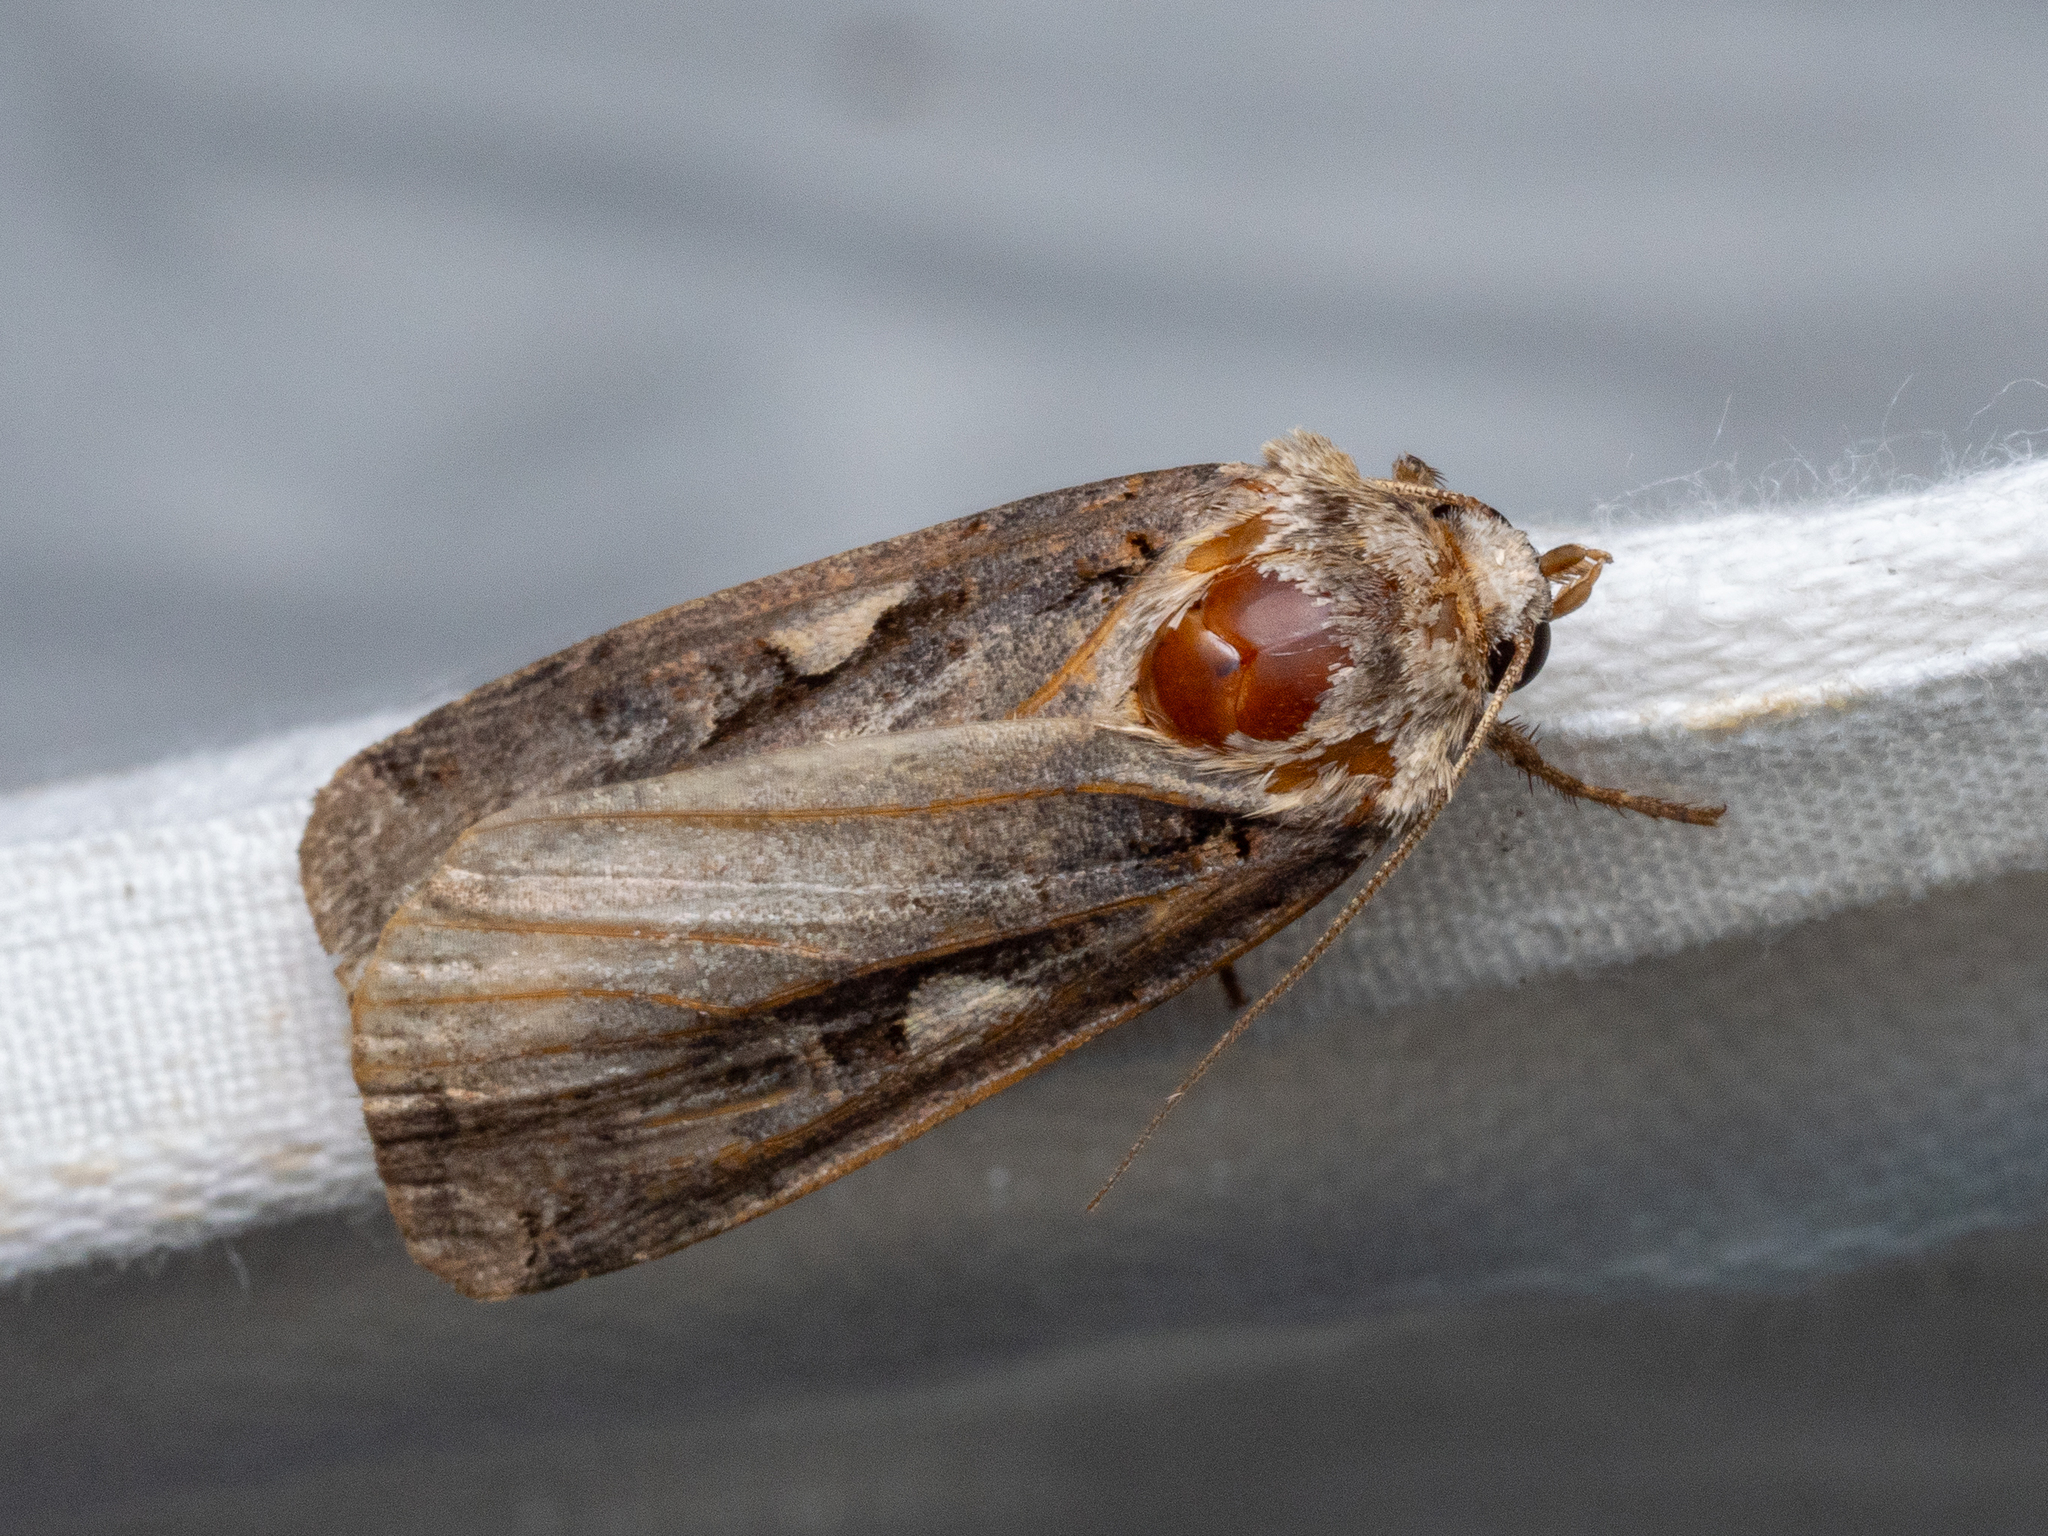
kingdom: Animalia
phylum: Arthropoda
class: Insecta
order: Lepidoptera
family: Noctuidae
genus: Xestia
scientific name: Xestia c-nigrum
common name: Setaceous hebrew character
